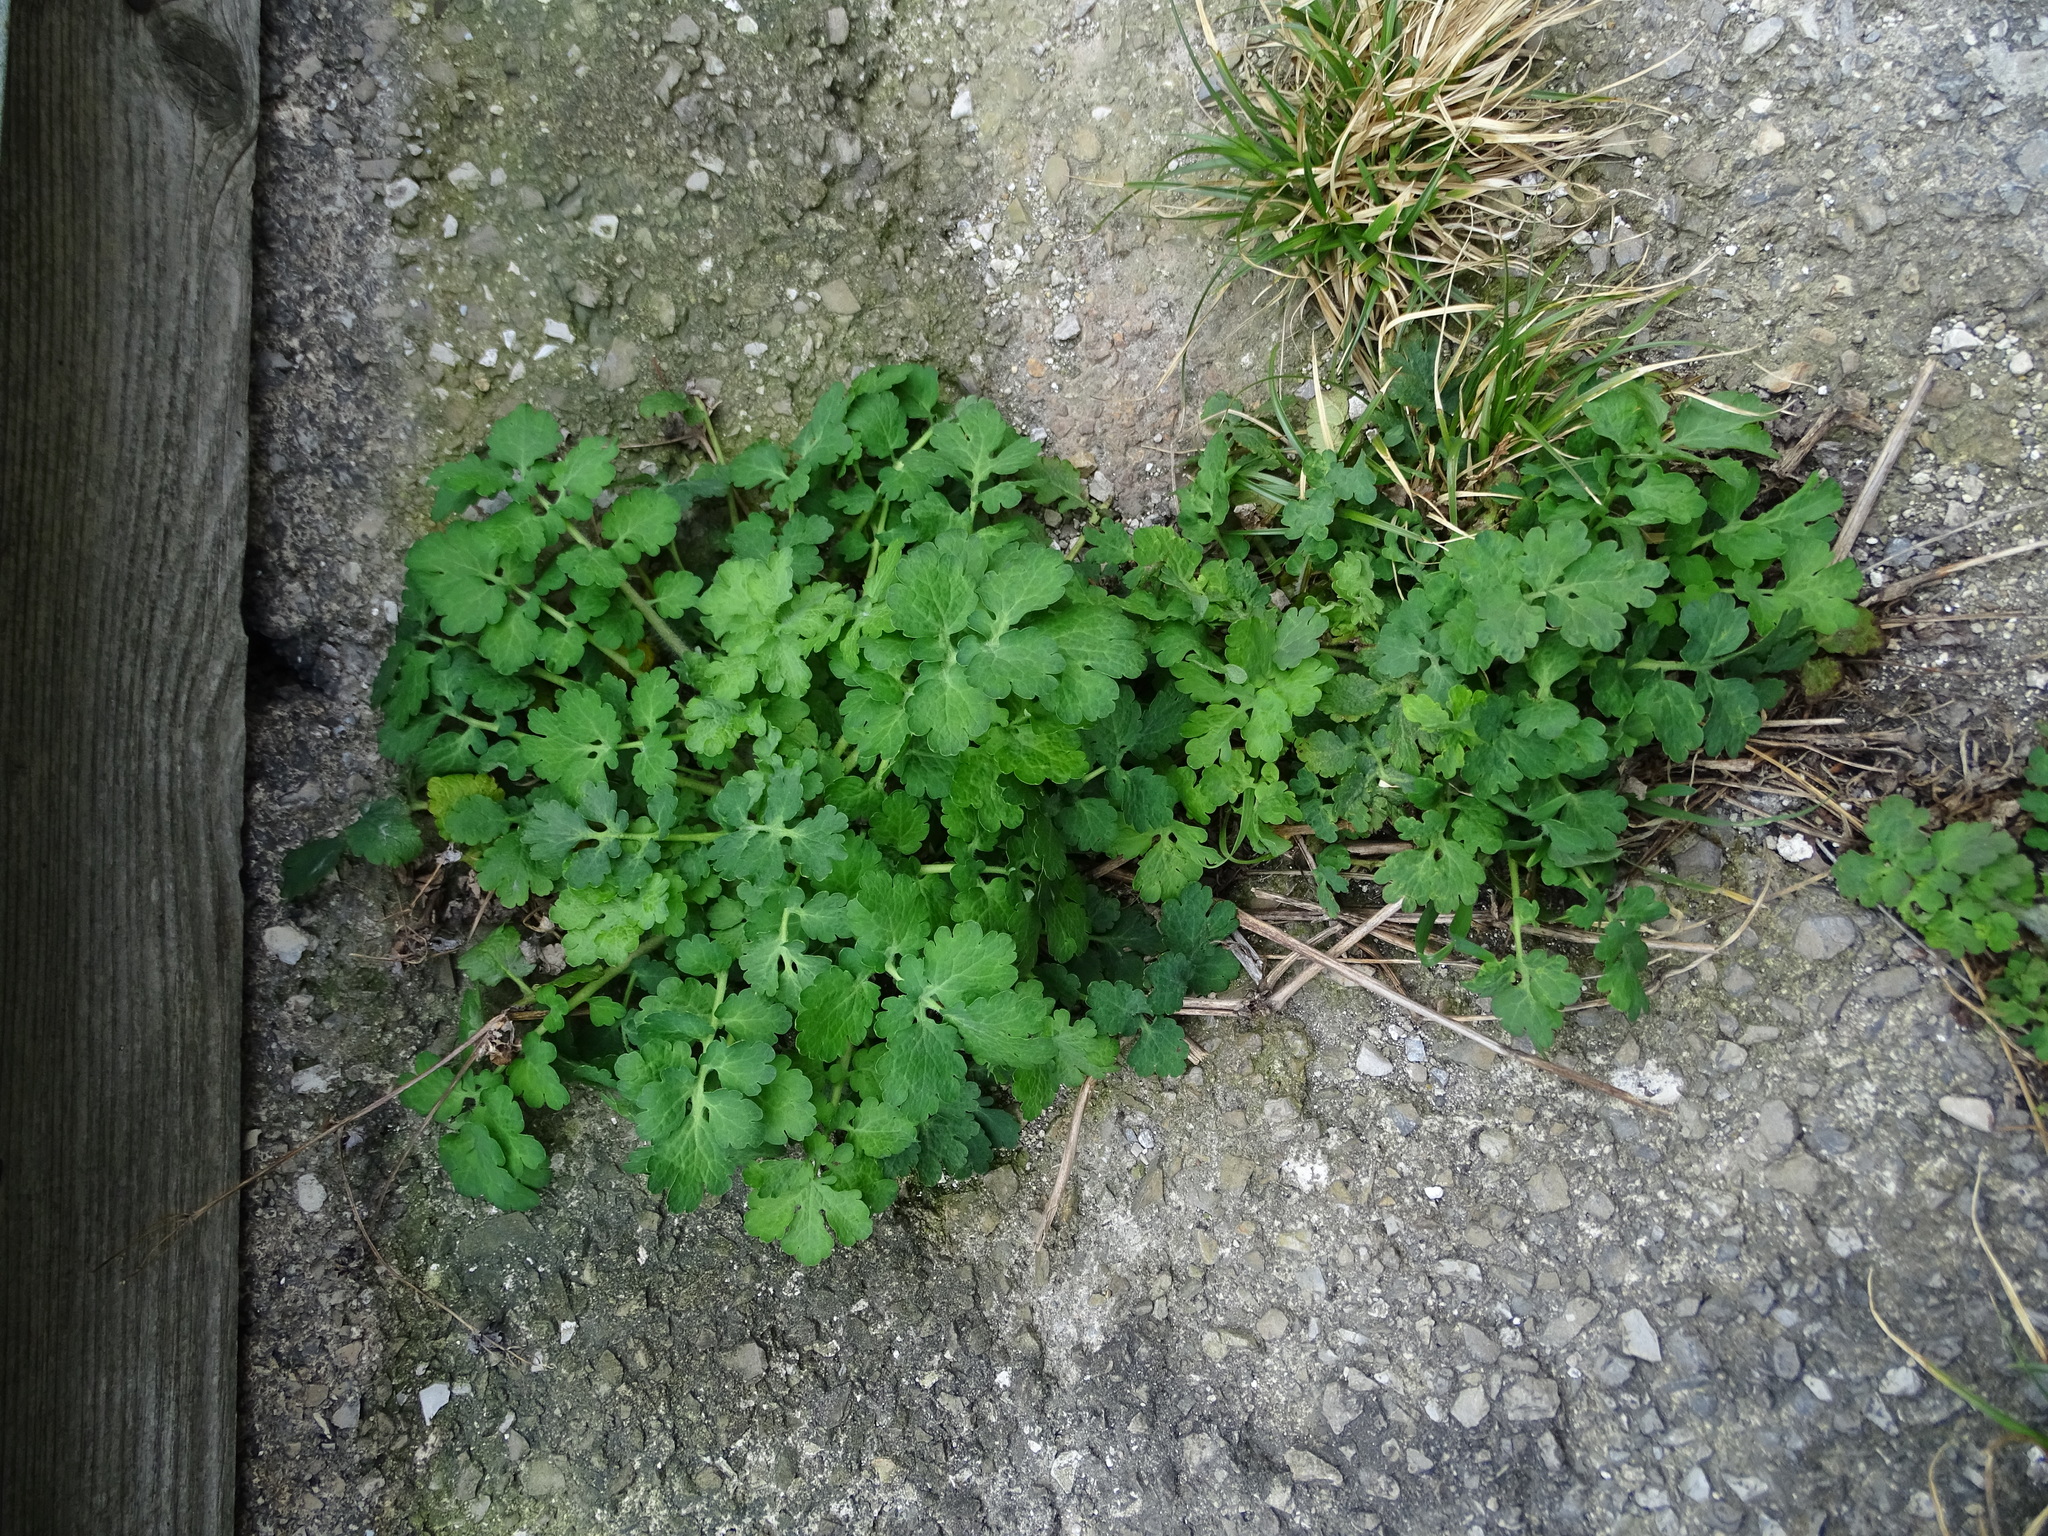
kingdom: Plantae
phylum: Tracheophyta
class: Magnoliopsida
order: Ranunculales
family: Papaveraceae
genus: Chelidonium
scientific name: Chelidonium majus
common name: Greater celandine
